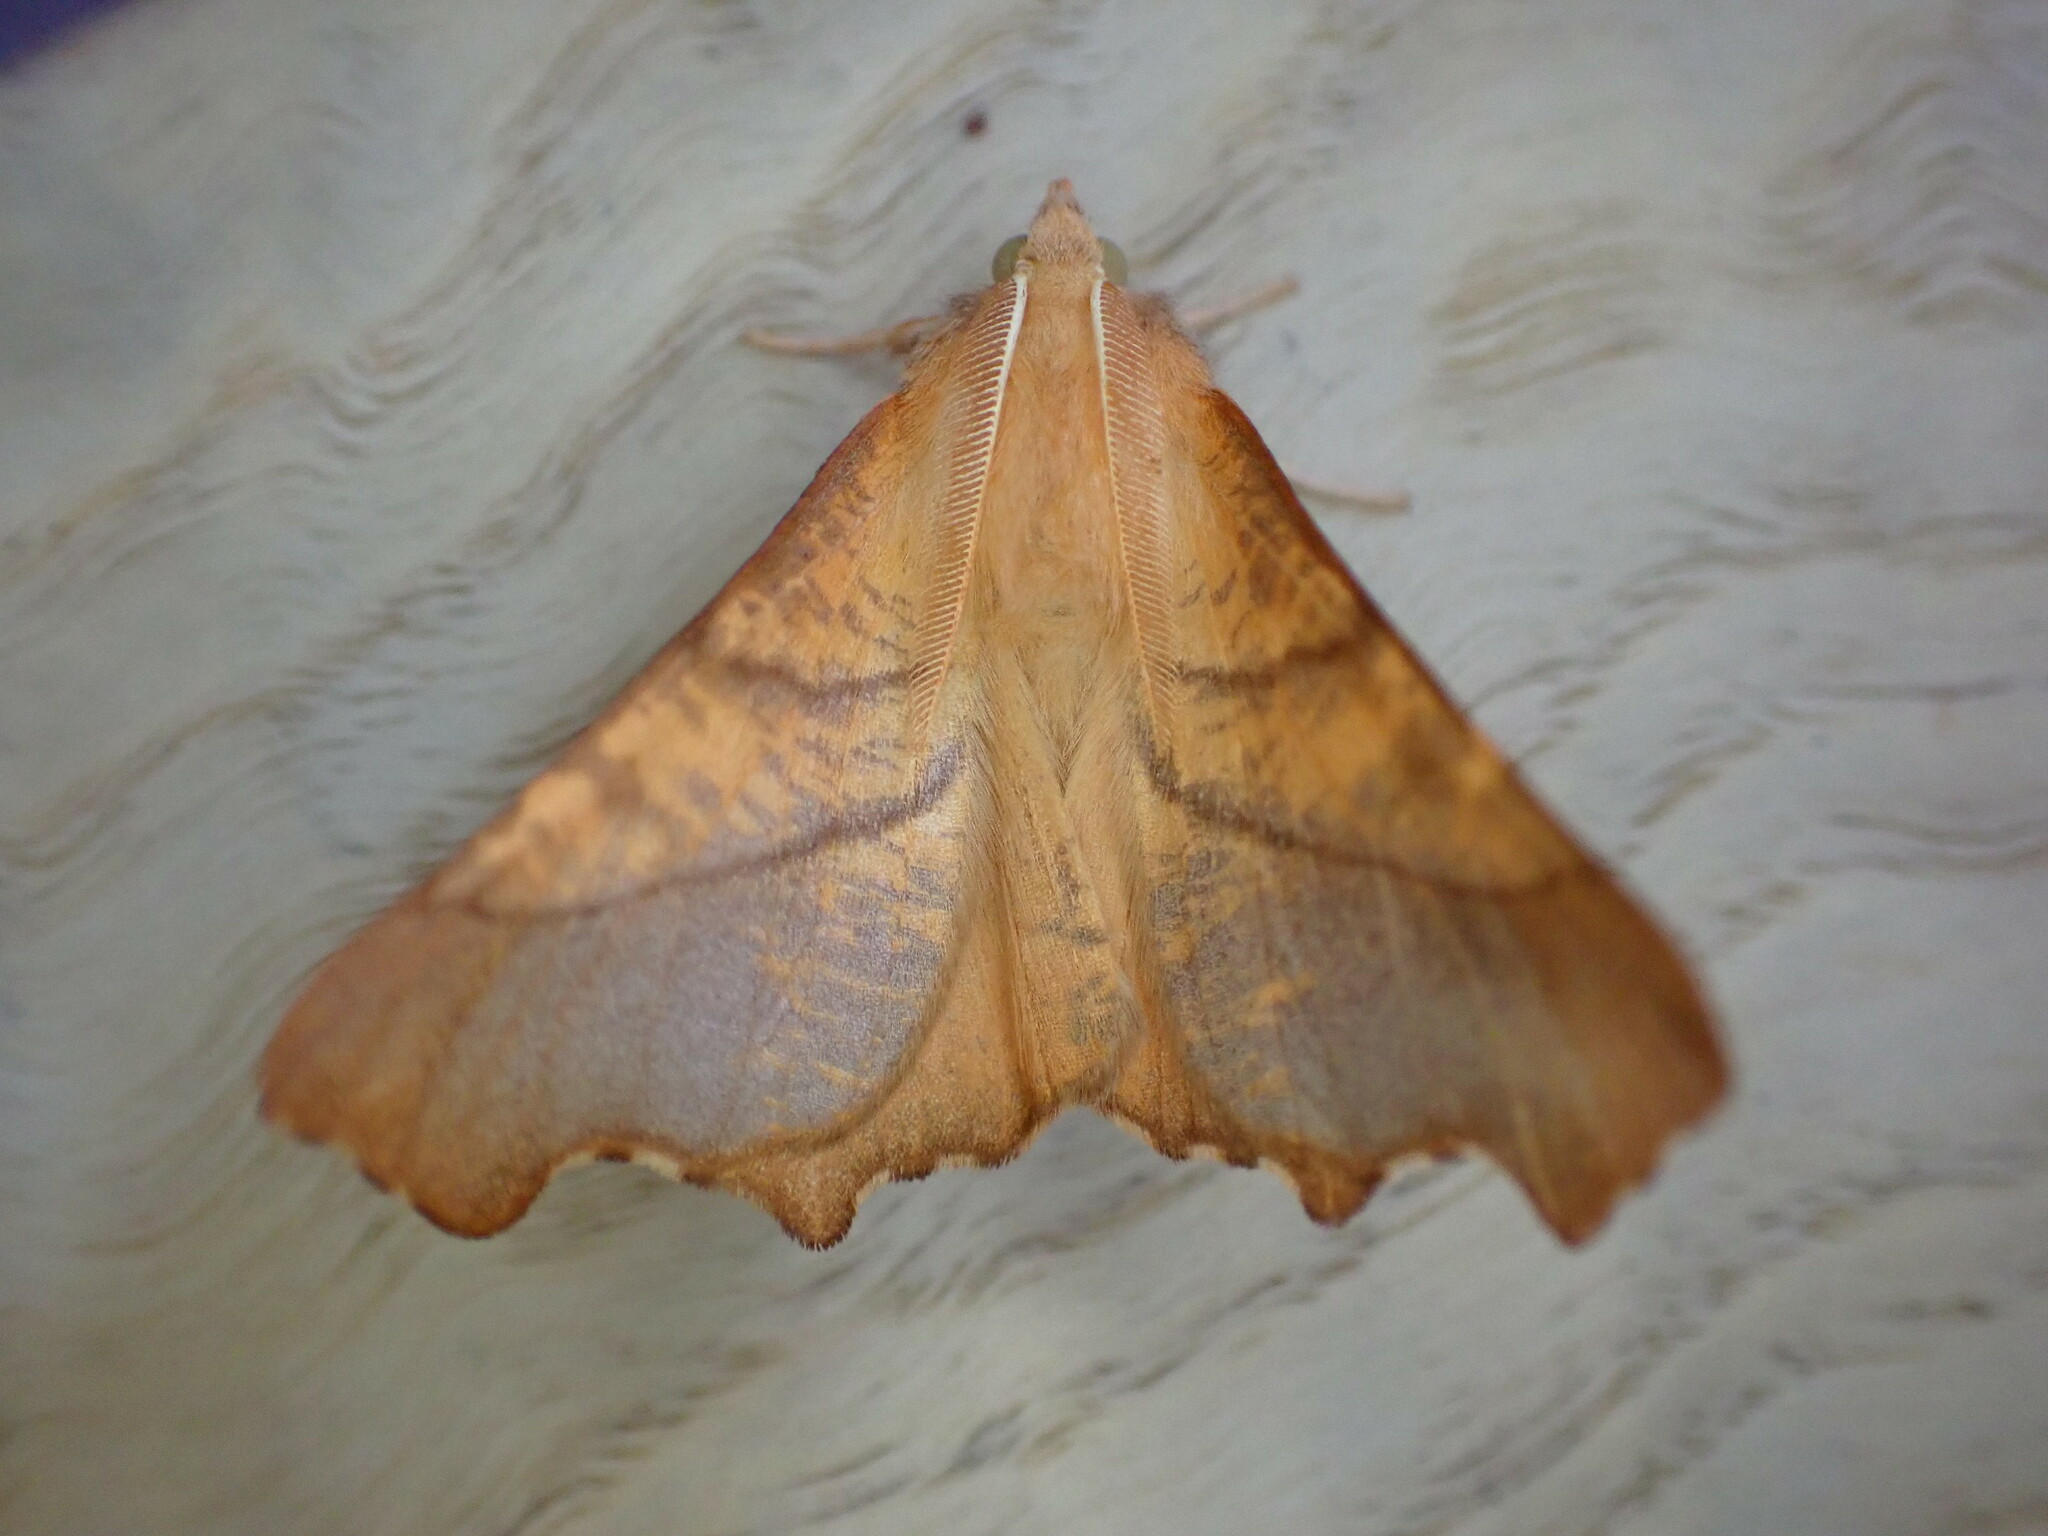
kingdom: Animalia
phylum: Arthropoda
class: Insecta
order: Lepidoptera
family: Geometridae
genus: Ennomos
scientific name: Ennomos fuscantaria
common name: Dusky thorn
